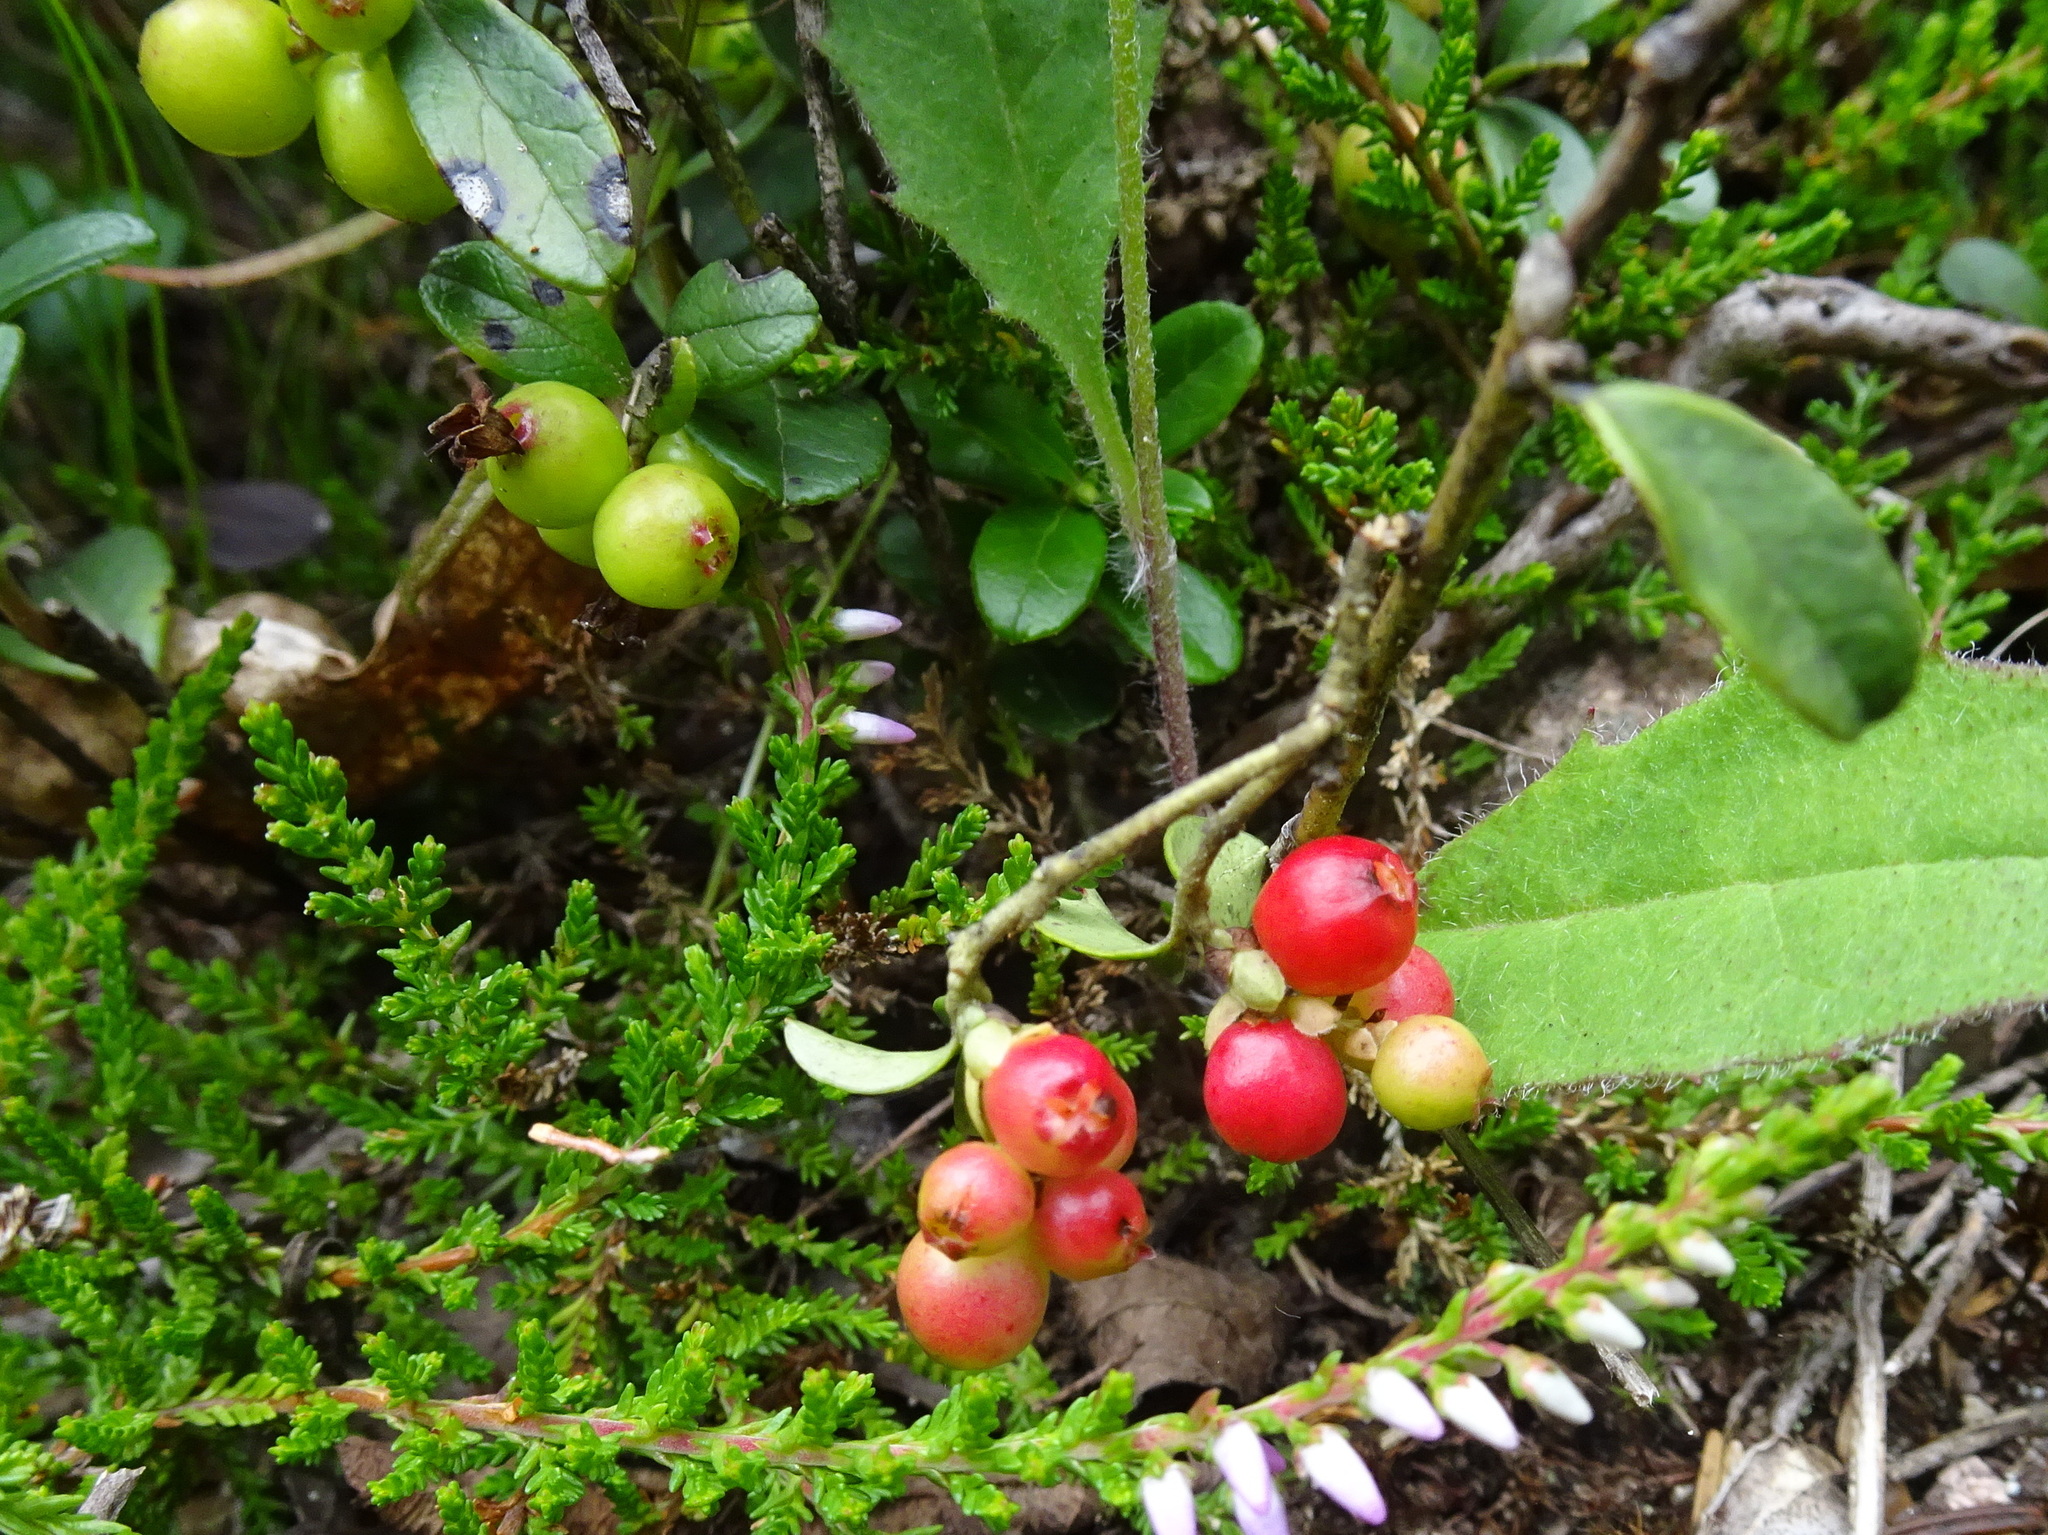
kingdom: Plantae
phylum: Tracheophyta
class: Magnoliopsida
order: Ericales
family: Ericaceae
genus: Vaccinium
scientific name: Vaccinium vitis-idaea
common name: Cowberry
